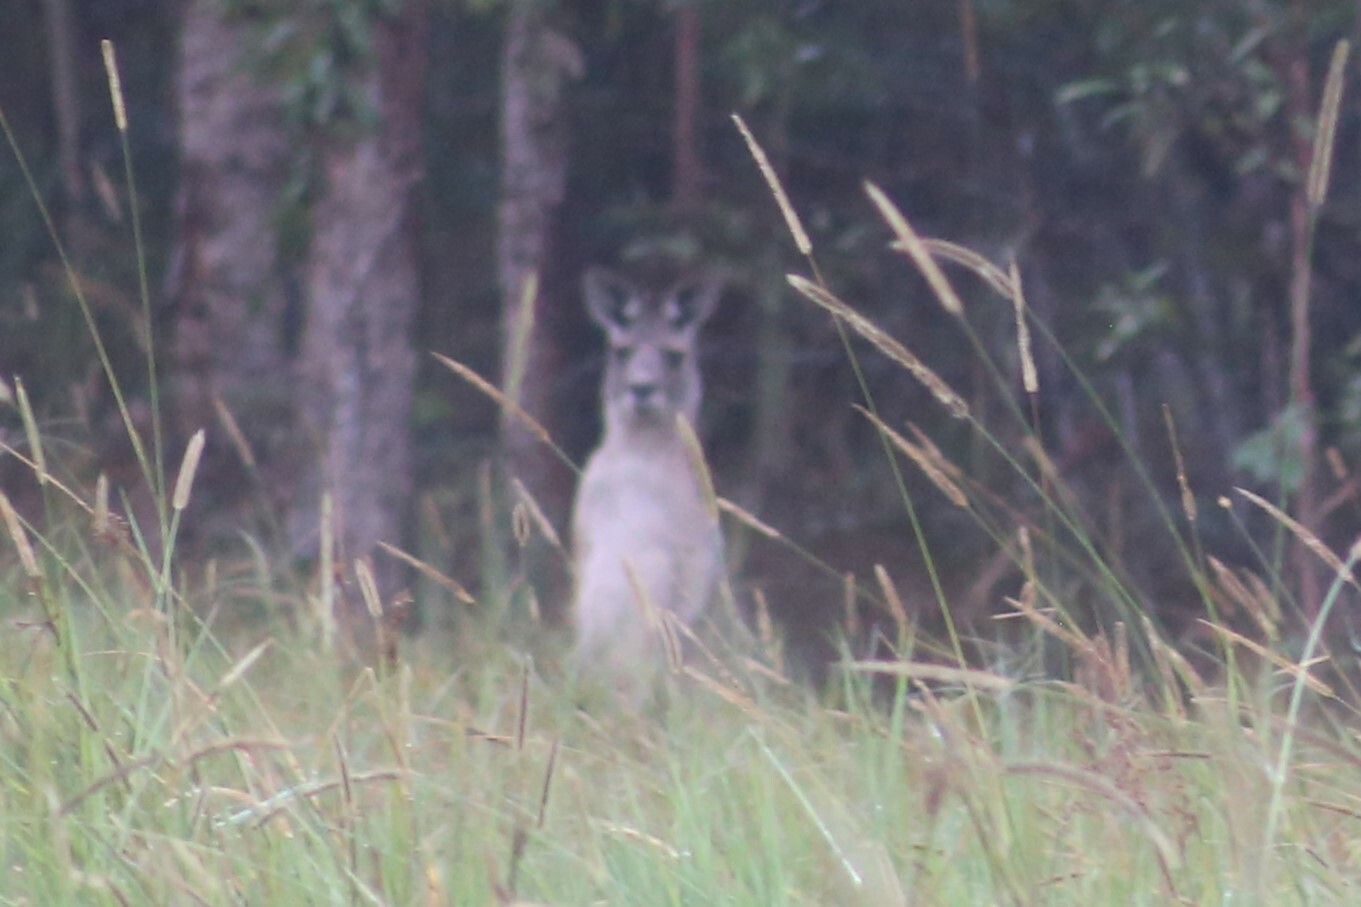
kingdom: Animalia
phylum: Chordata
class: Mammalia
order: Diprotodontia
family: Macropodidae
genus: Macropus
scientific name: Macropus giganteus
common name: Eastern grey kangaroo
